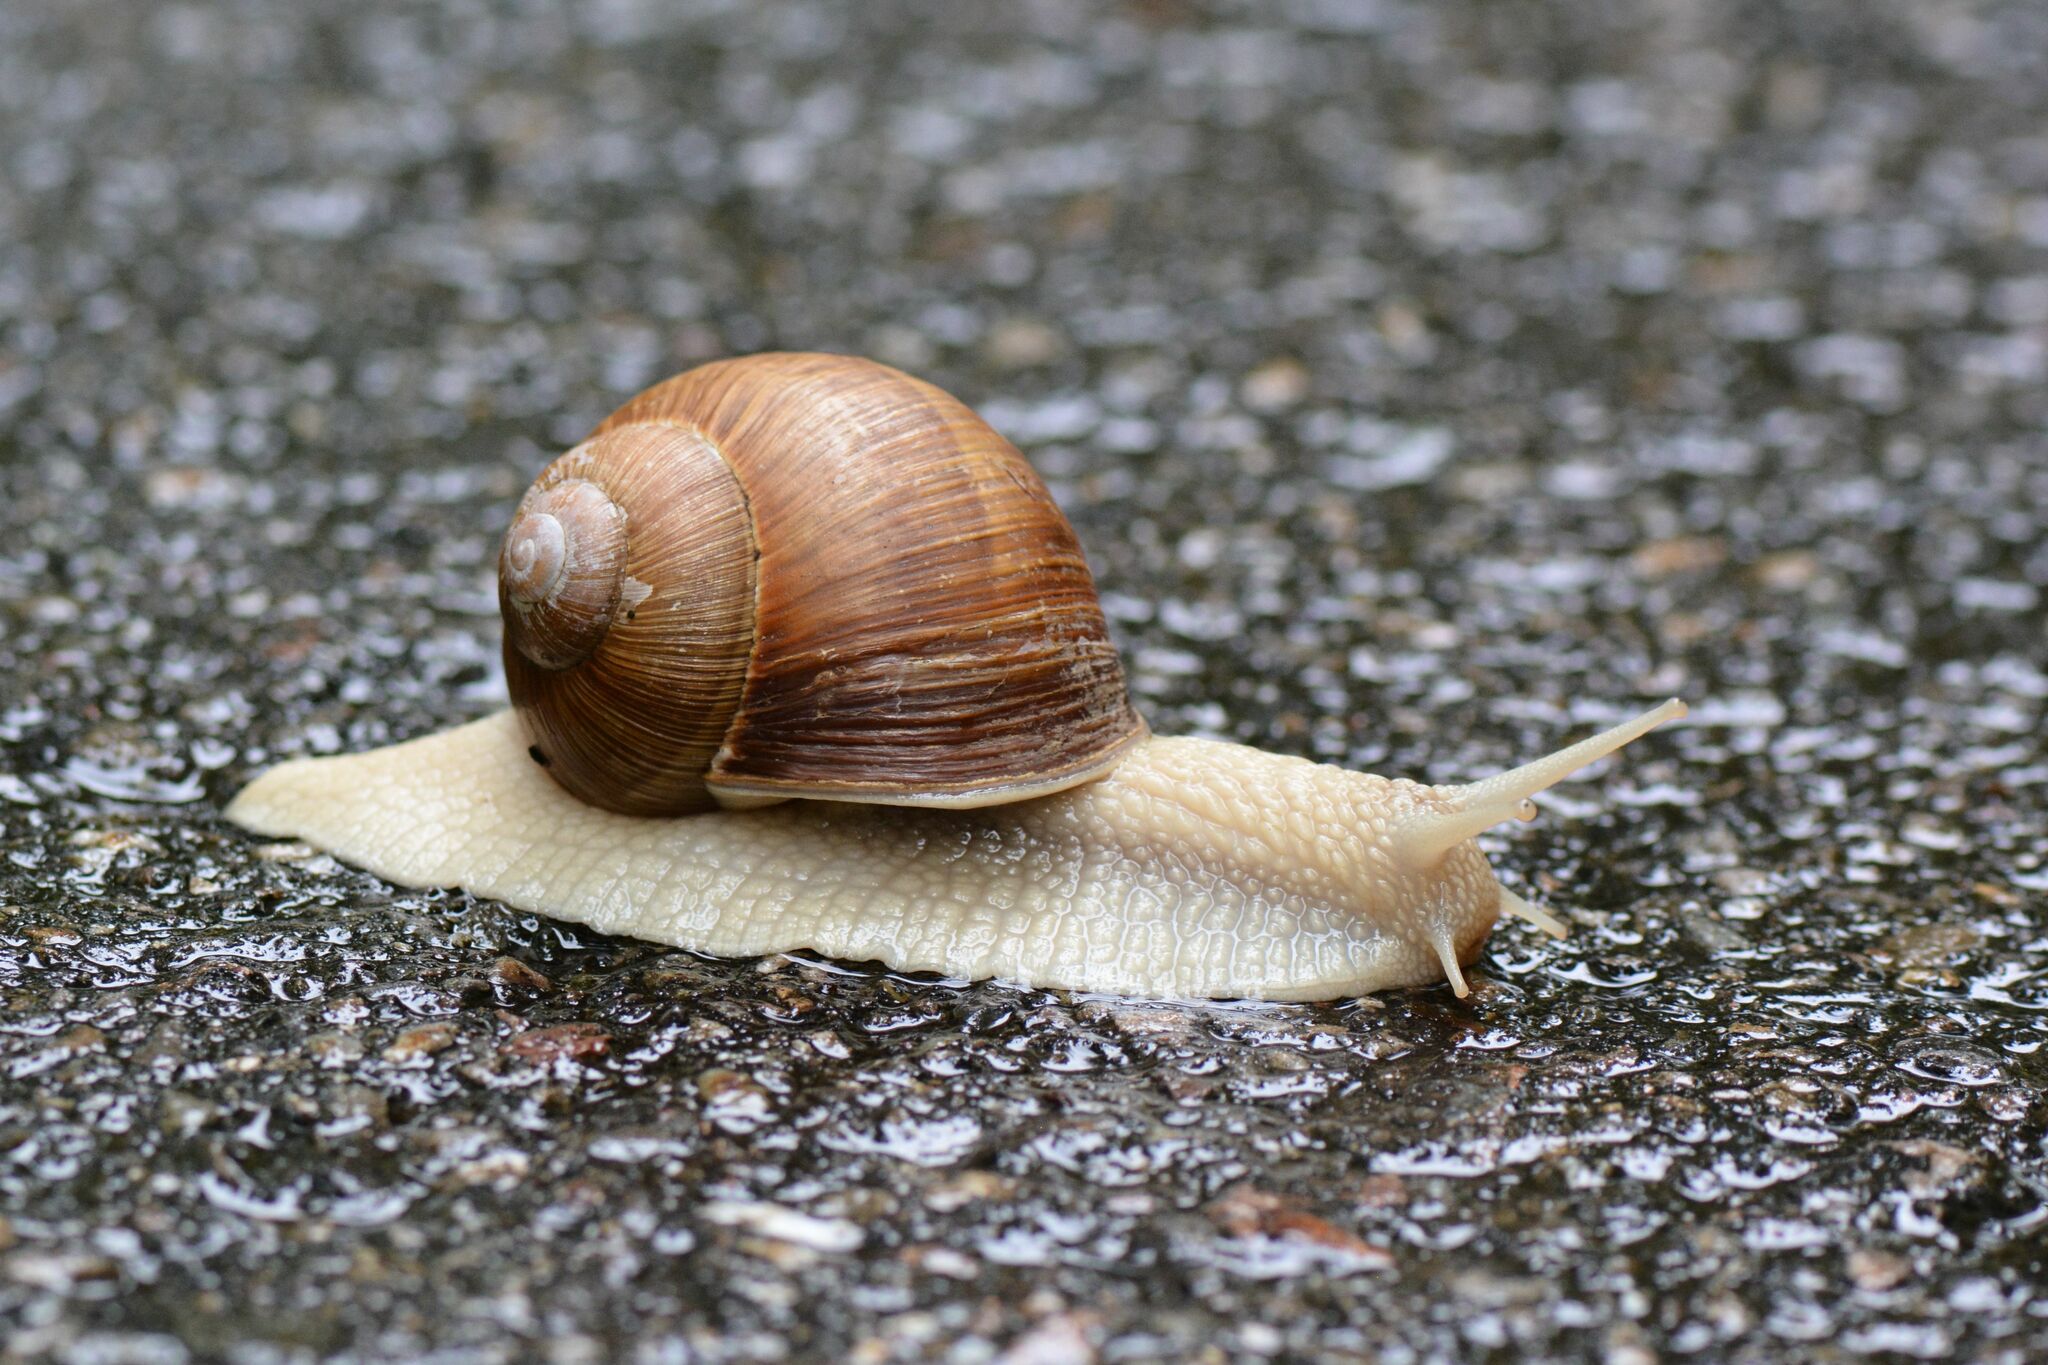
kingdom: Animalia
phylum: Mollusca
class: Gastropoda
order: Stylommatophora
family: Helicidae
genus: Helix
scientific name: Helix pomatia
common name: Roman snail
